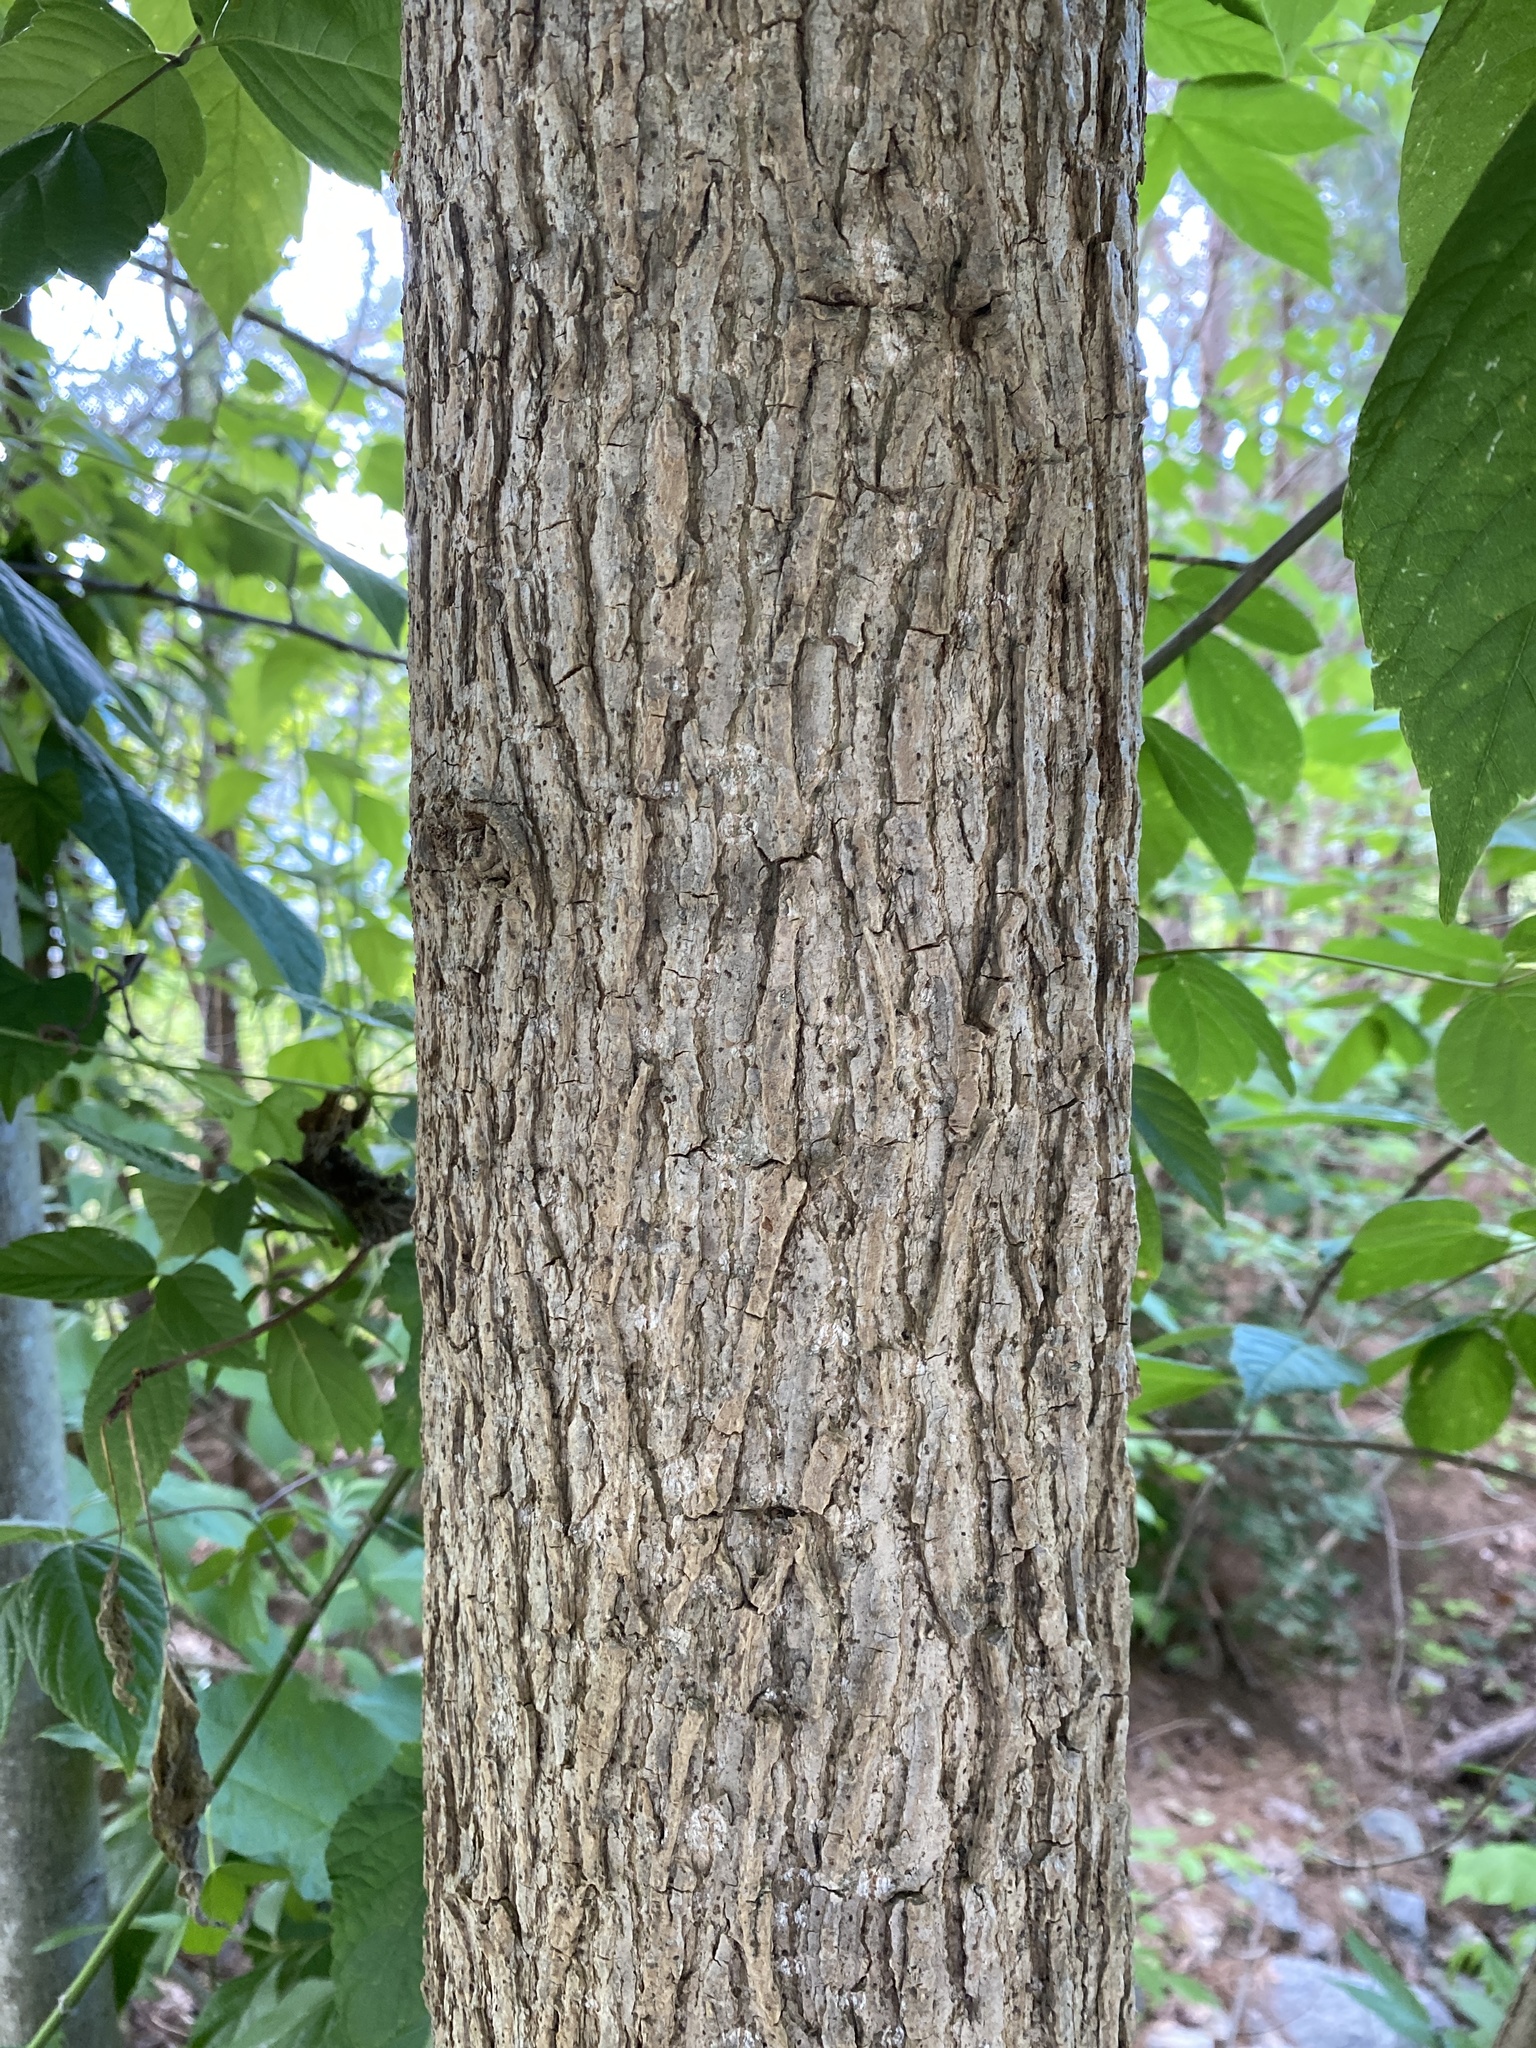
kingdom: Plantae
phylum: Tracheophyta
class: Magnoliopsida
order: Malpighiales
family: Salicaceae
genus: Populus
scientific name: Populus deltoides
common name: Eastern cottonwood
